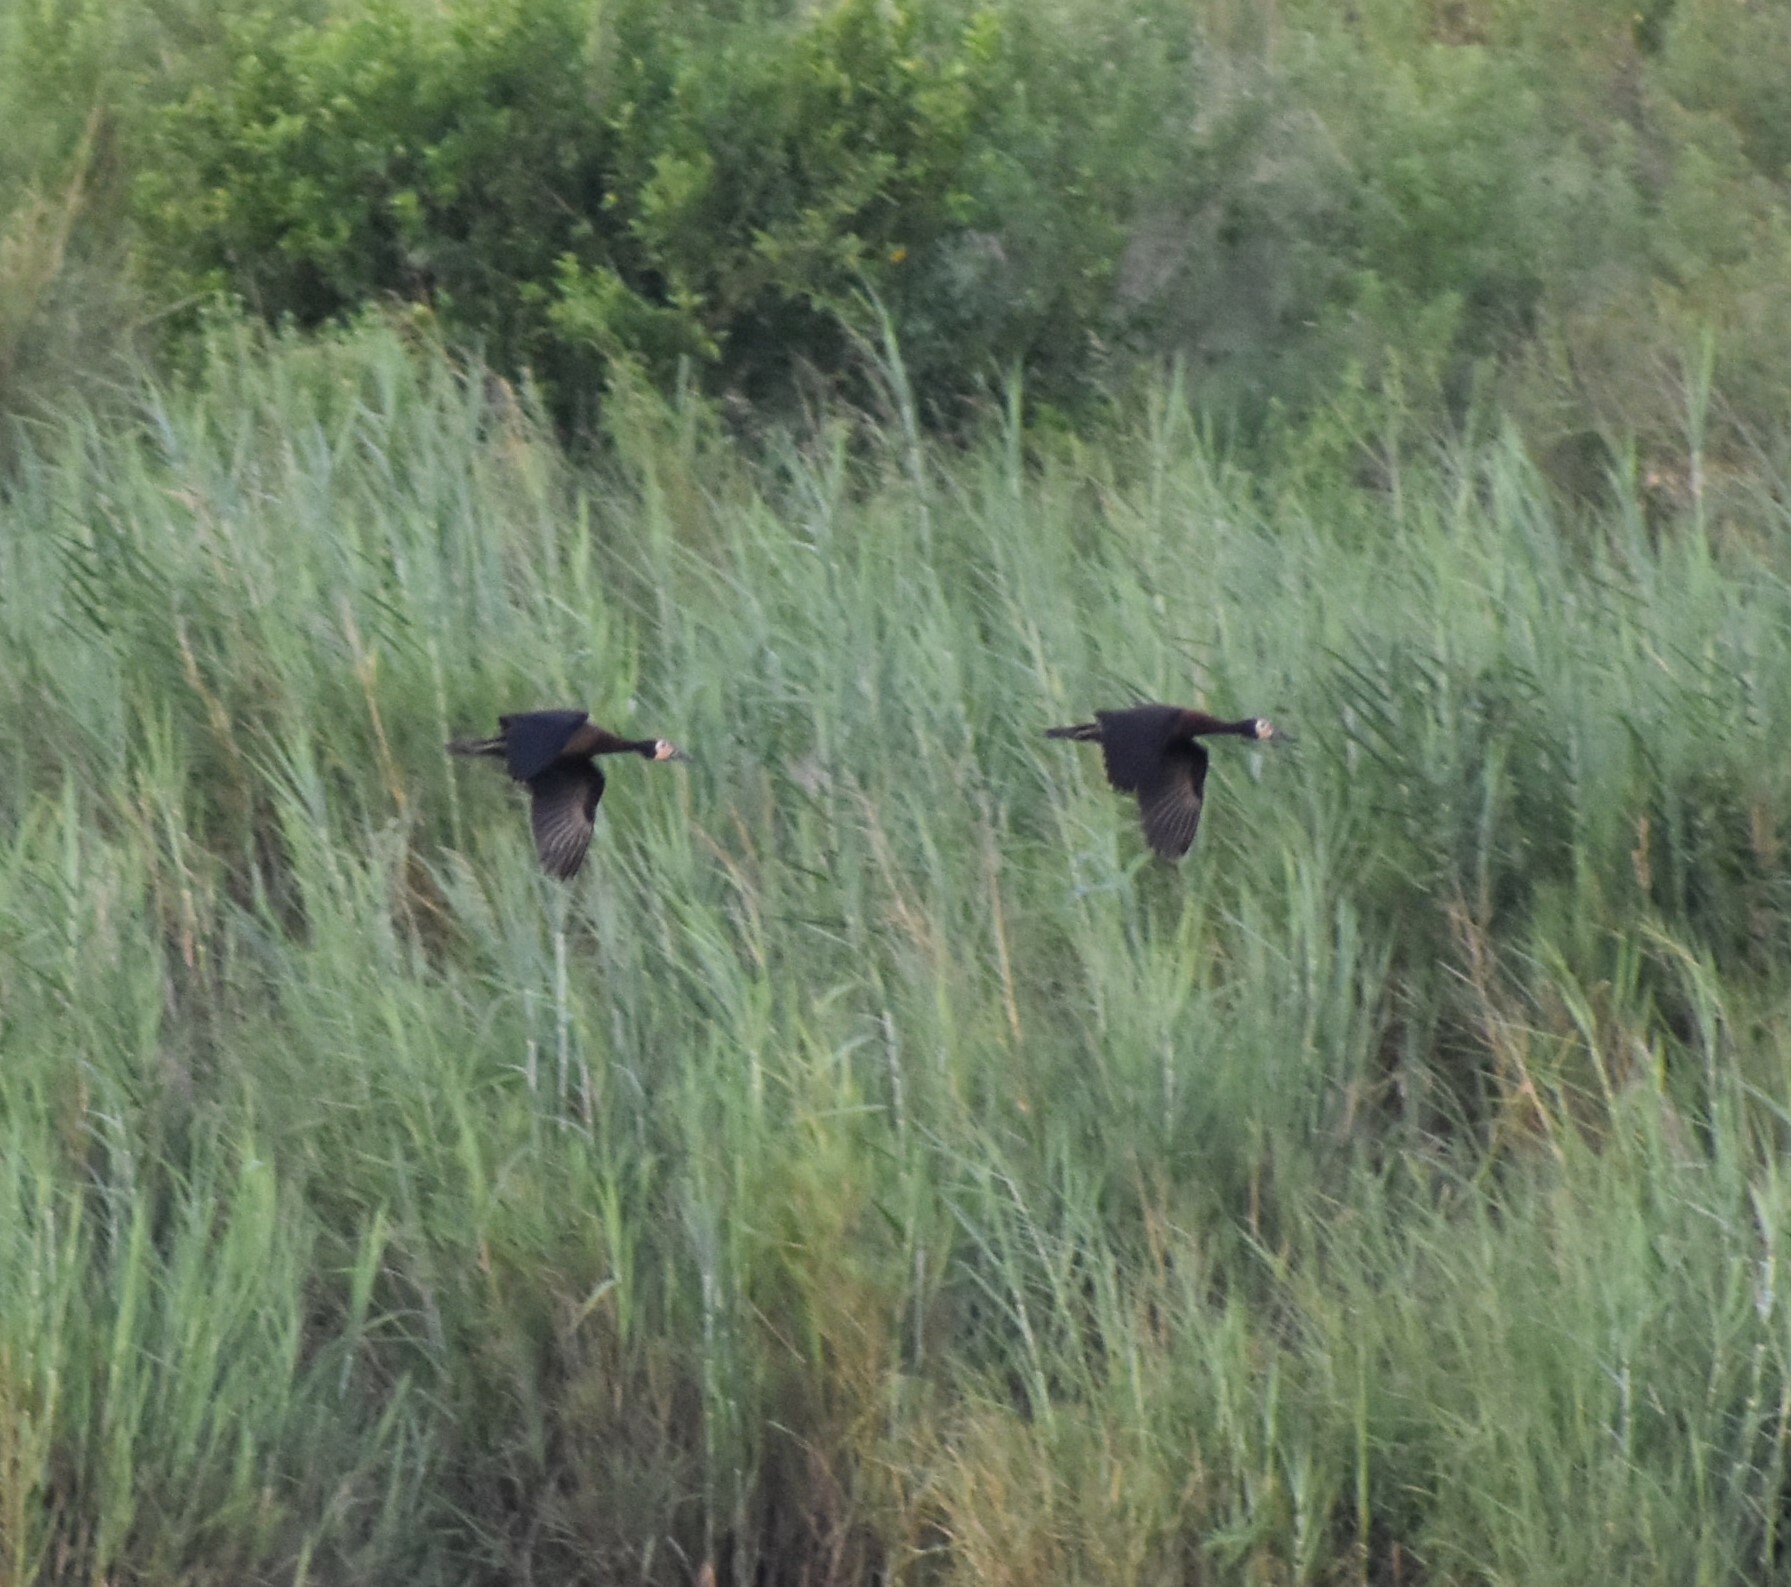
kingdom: Animalia
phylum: Chordata
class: Aves
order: Anseriformes
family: Anatidae
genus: Dendrocygna
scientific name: Dendrocygna viduata
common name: White-faced whistling duck
